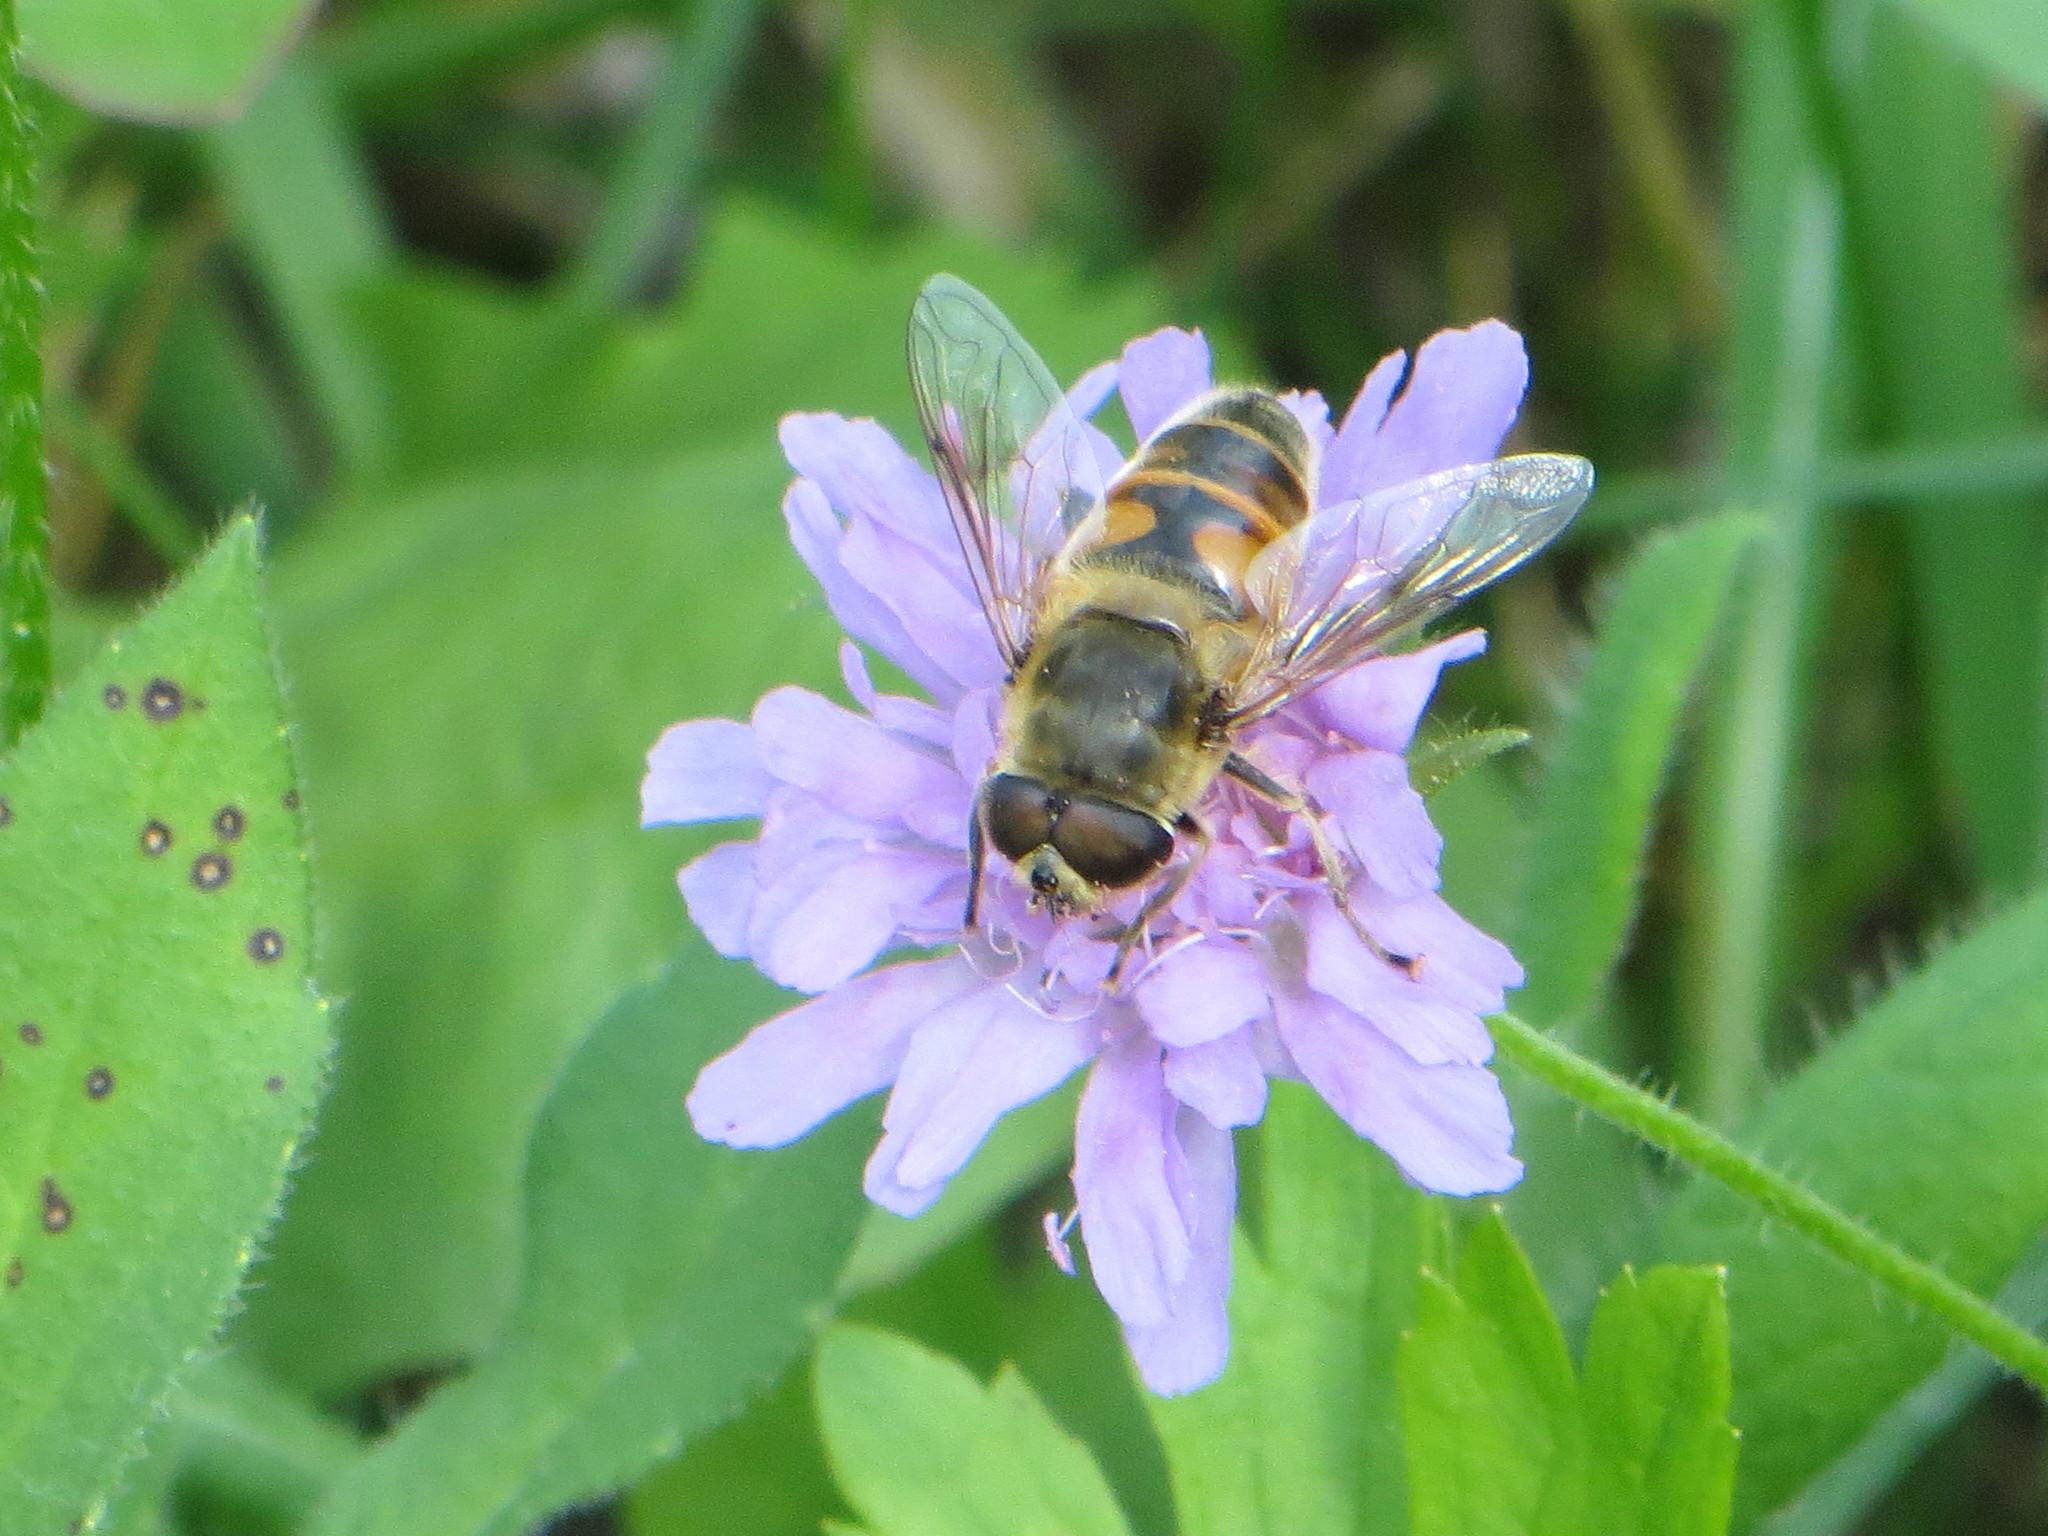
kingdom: Animalia
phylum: Arthropoda
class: Insecta
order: Diptera
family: Syrphidae
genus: Eristalis
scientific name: Eristalis tenax
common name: Drone fly
